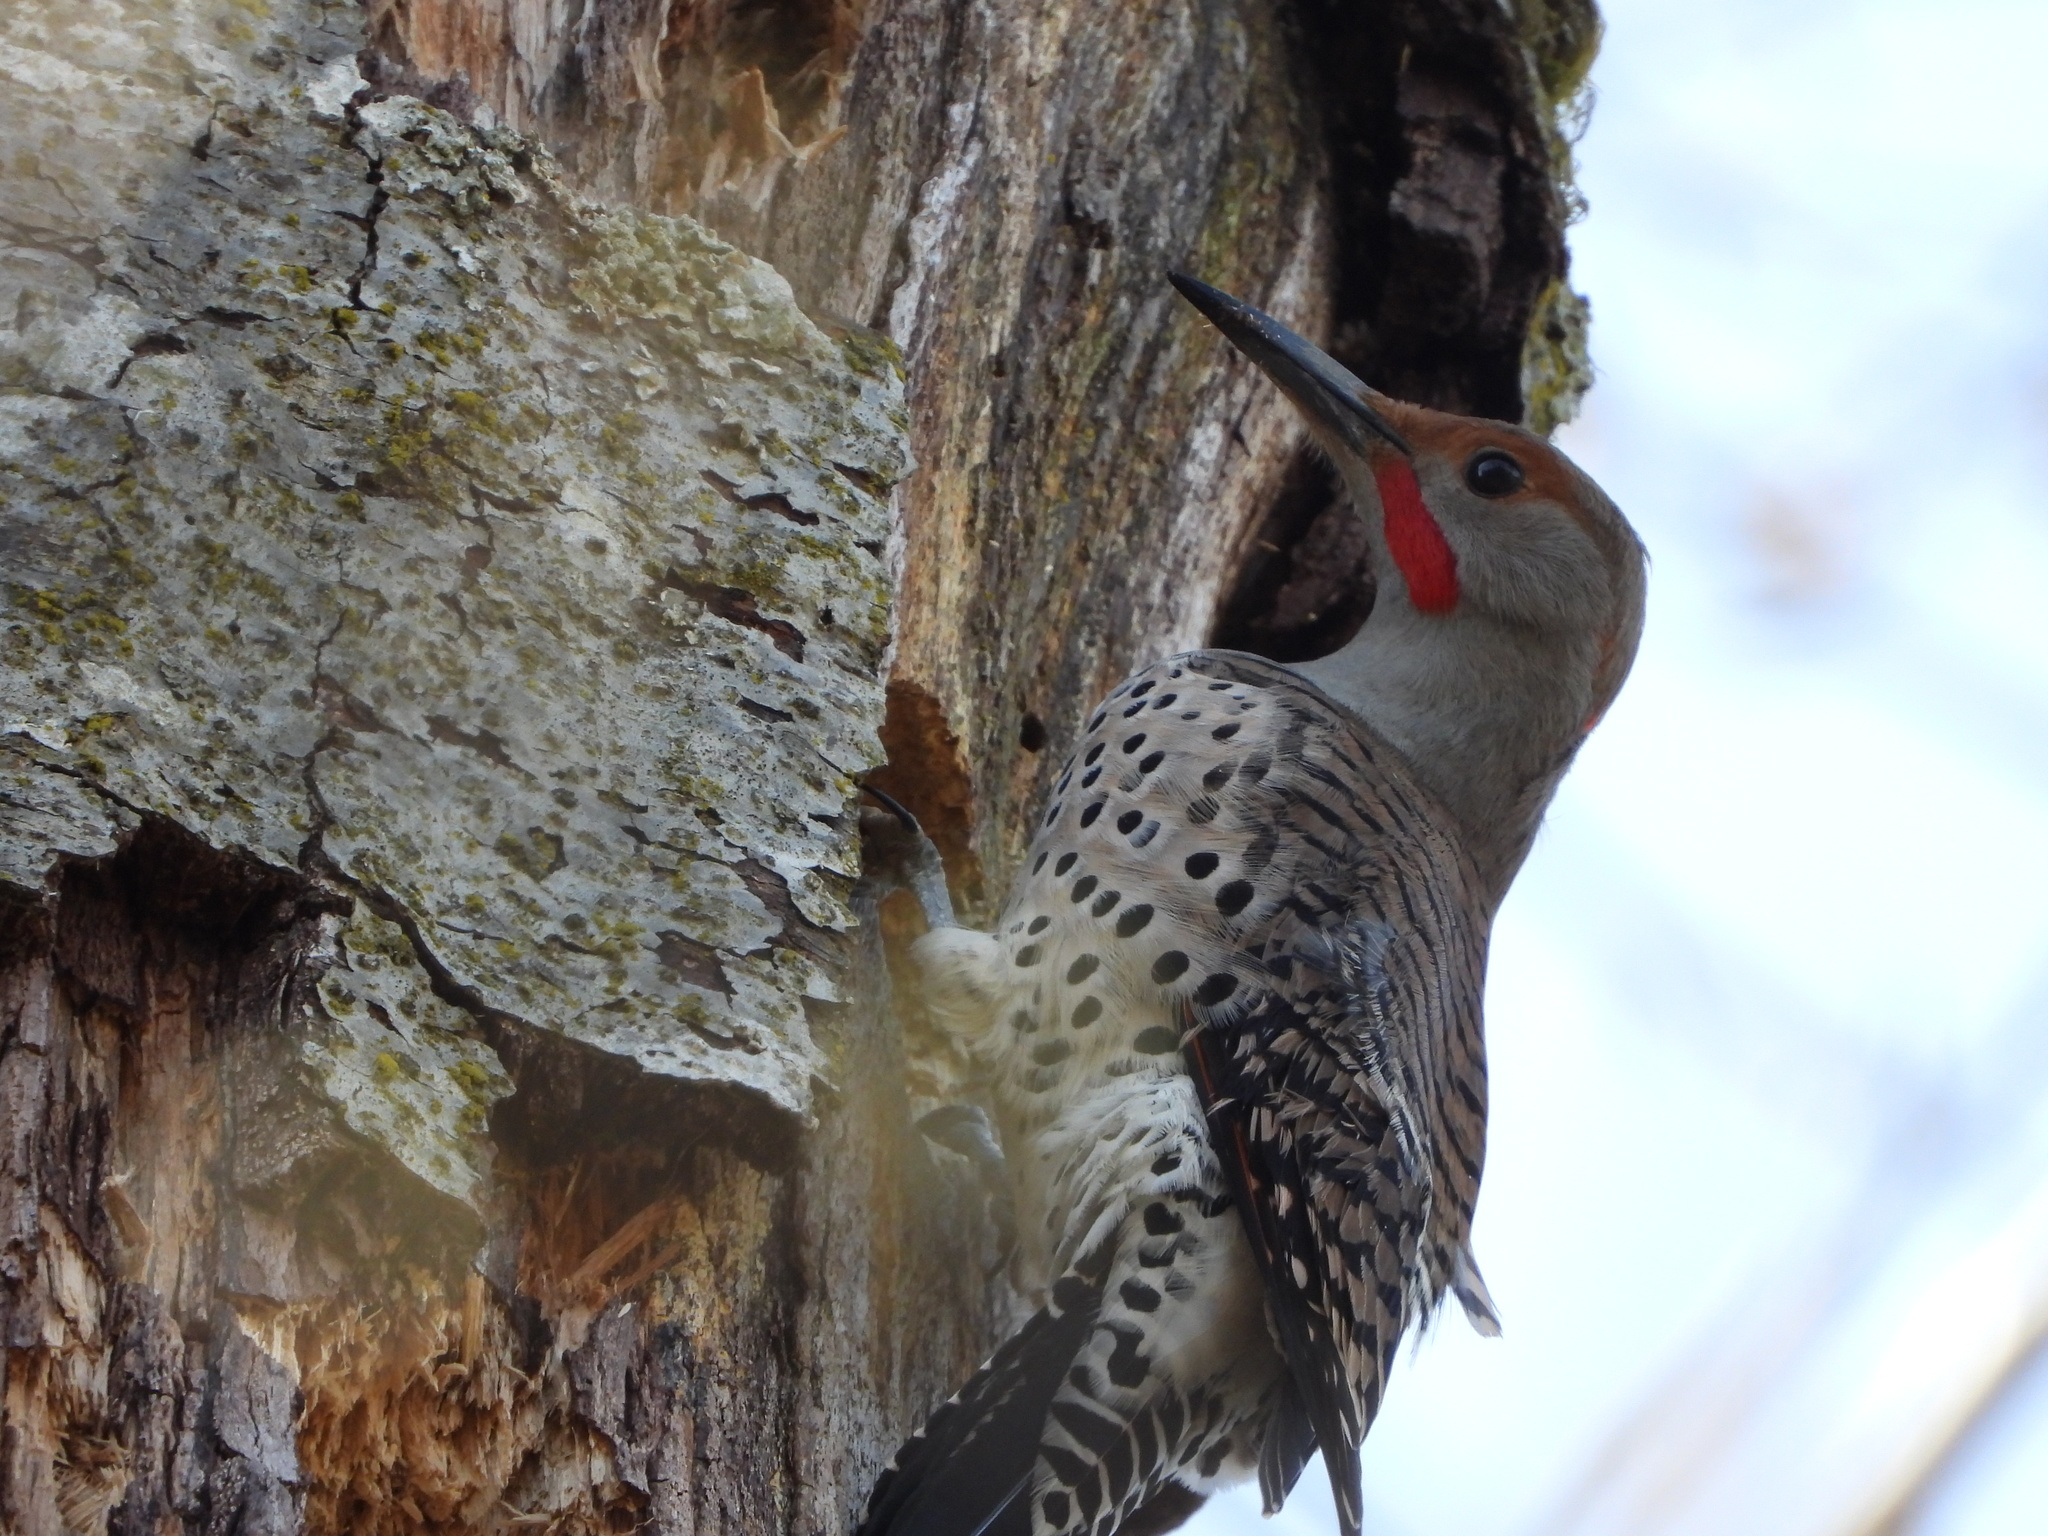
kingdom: Animalia
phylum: Chordata
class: Aves
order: Piciformes
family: Picidae
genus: Colaptes
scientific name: Colaptes
